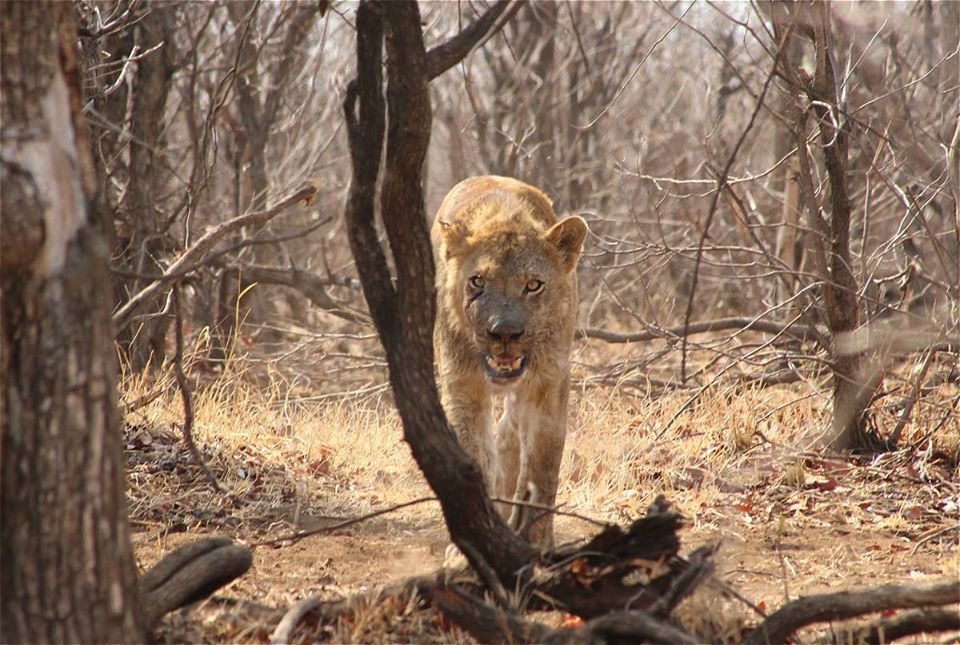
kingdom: Animalia
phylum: Chordata
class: Mammalia
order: Carnivora
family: Felidae
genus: Panthera
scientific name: Panthera leo
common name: Lion
